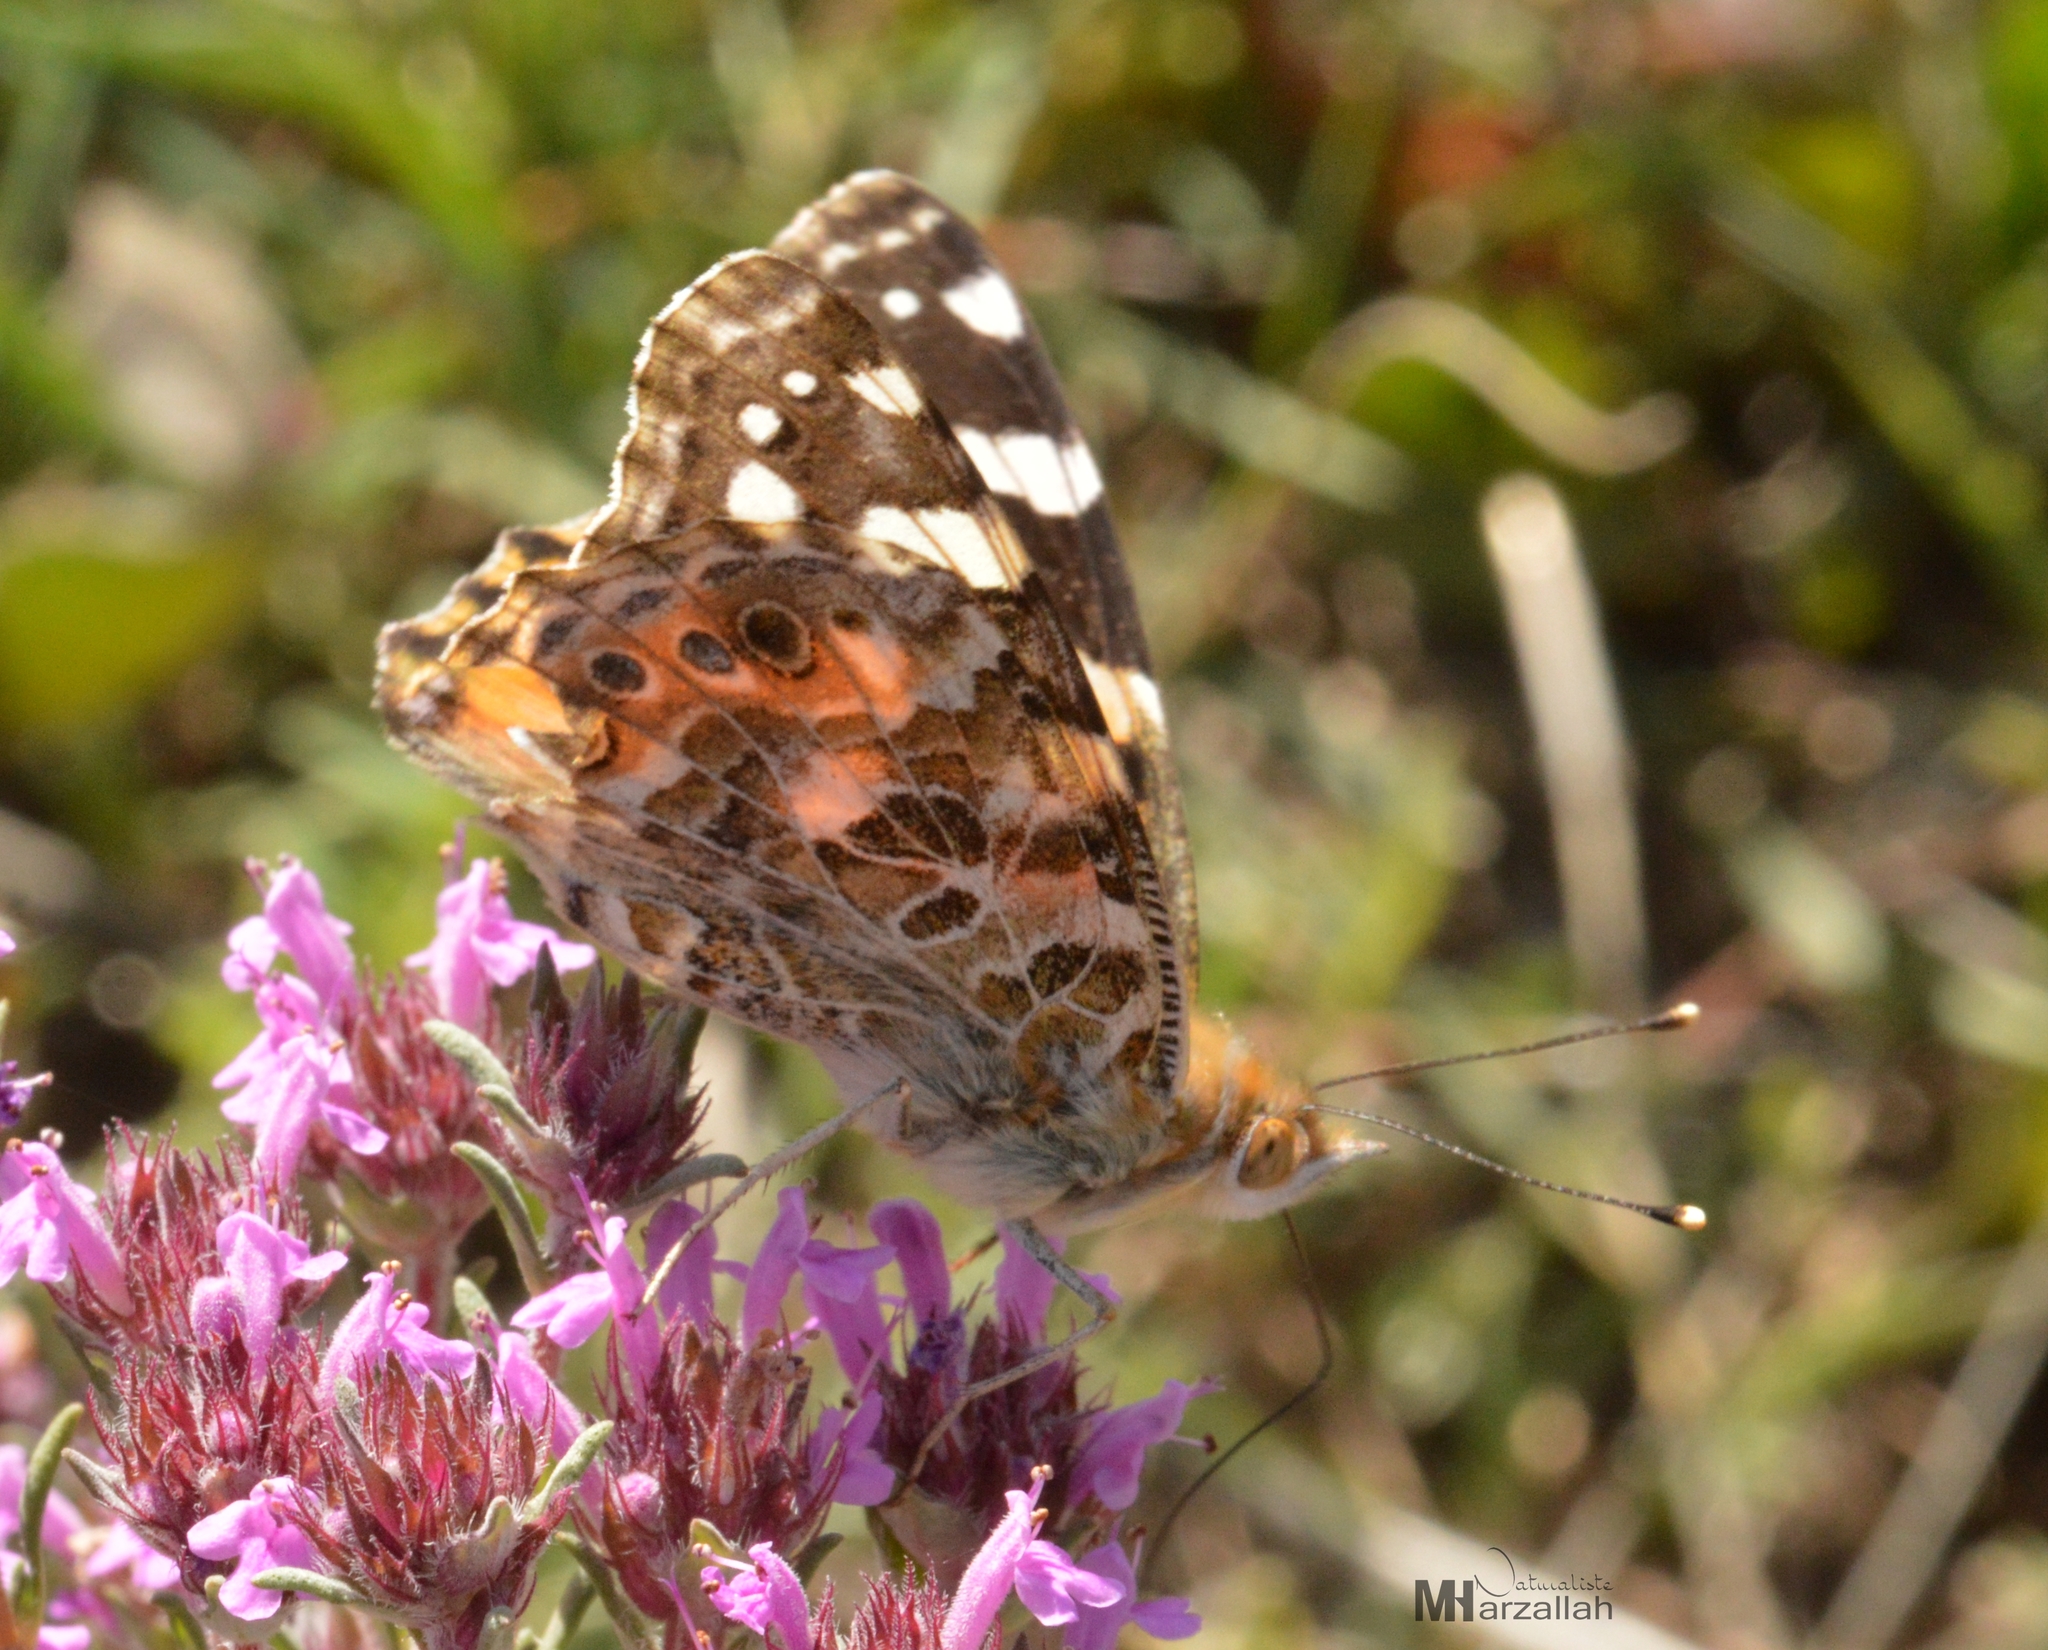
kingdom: Animalia
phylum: Arthropoda
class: Insecta
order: Lepidoptera
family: Nymphalidae
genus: Vanessa
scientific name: Vanessa cardui
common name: Painted lady
